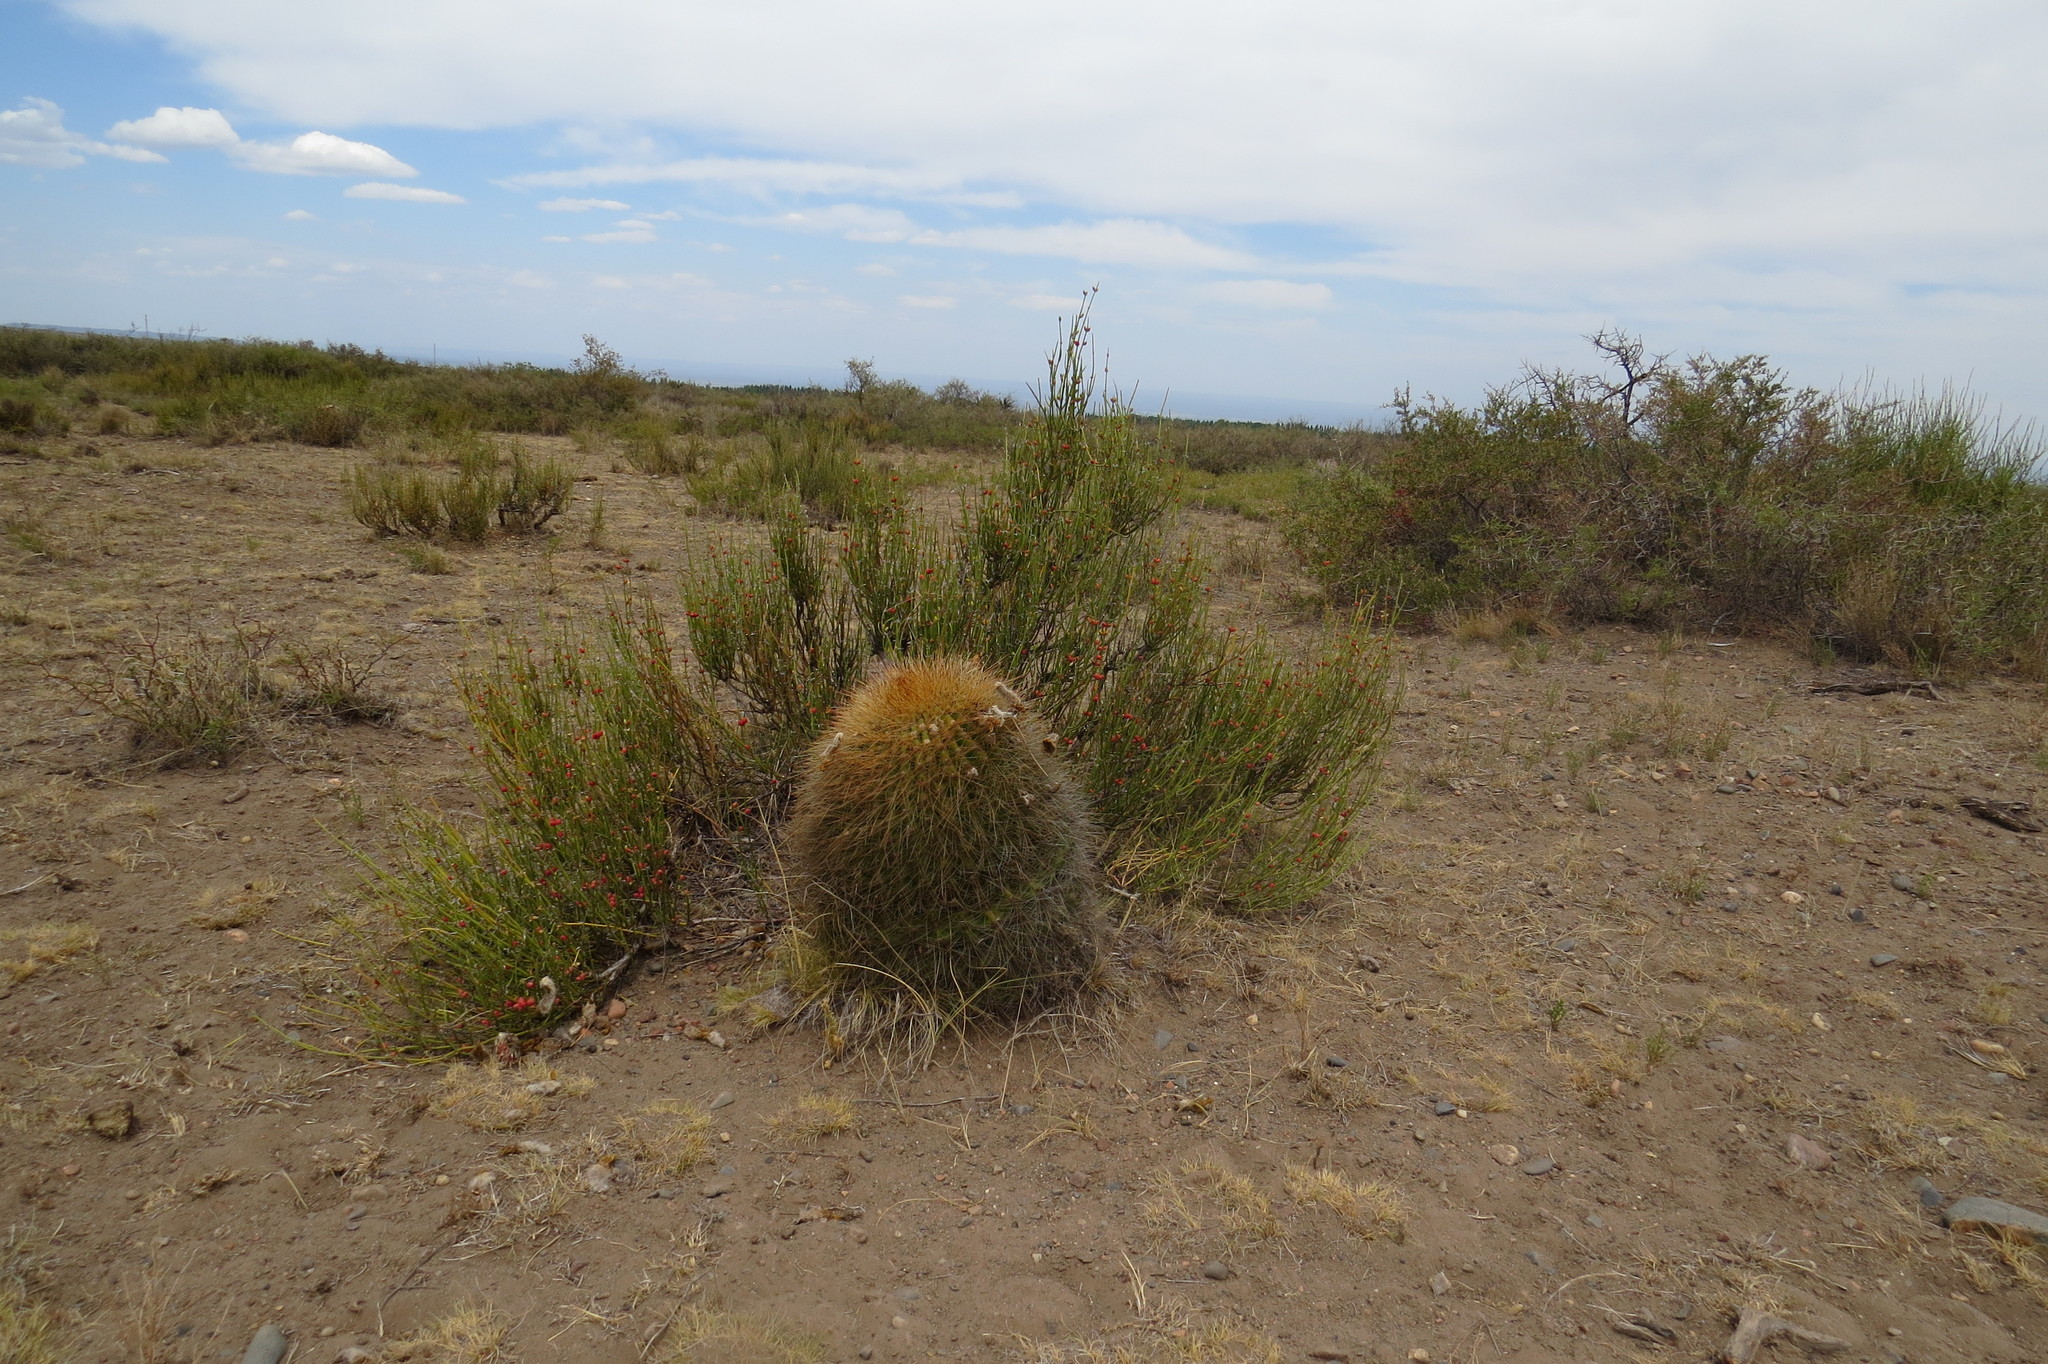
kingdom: Plantae
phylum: Tracheophyta
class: Magnoliopsida
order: Caryophyllales
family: Cactaceae
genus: Denmoza
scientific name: Denmoza rhodacantha
